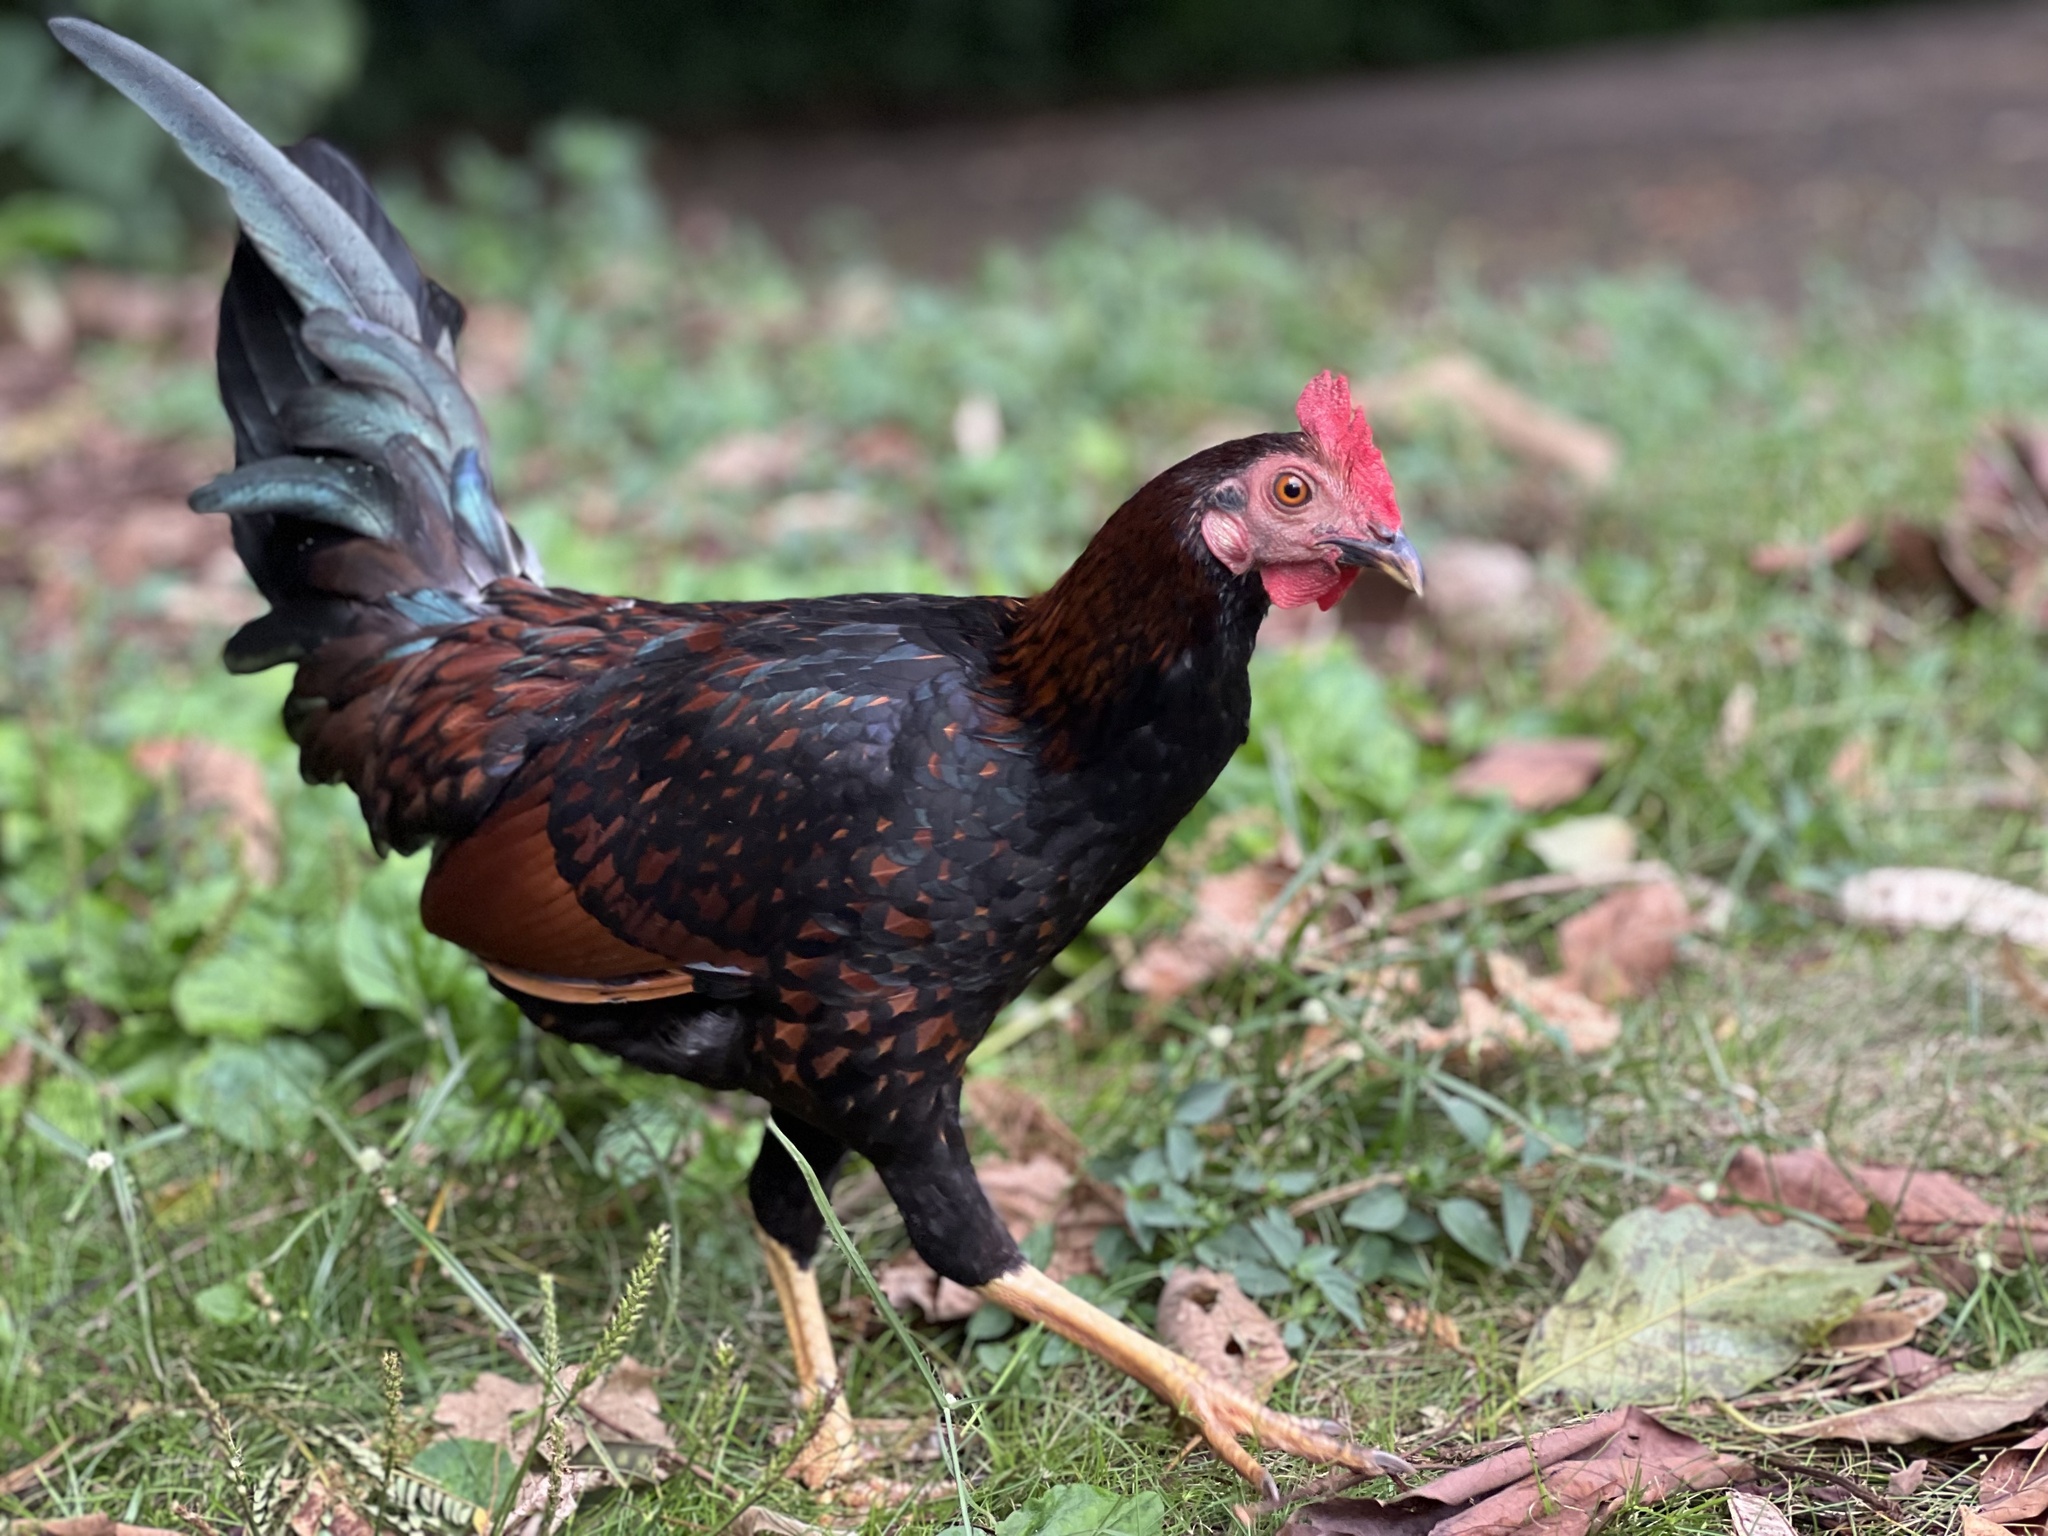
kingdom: Animalia
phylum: Chordata
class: Aves
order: Galliformes
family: Phasianidae
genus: Gallus
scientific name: Gallus gallus
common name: Red junglefowl
